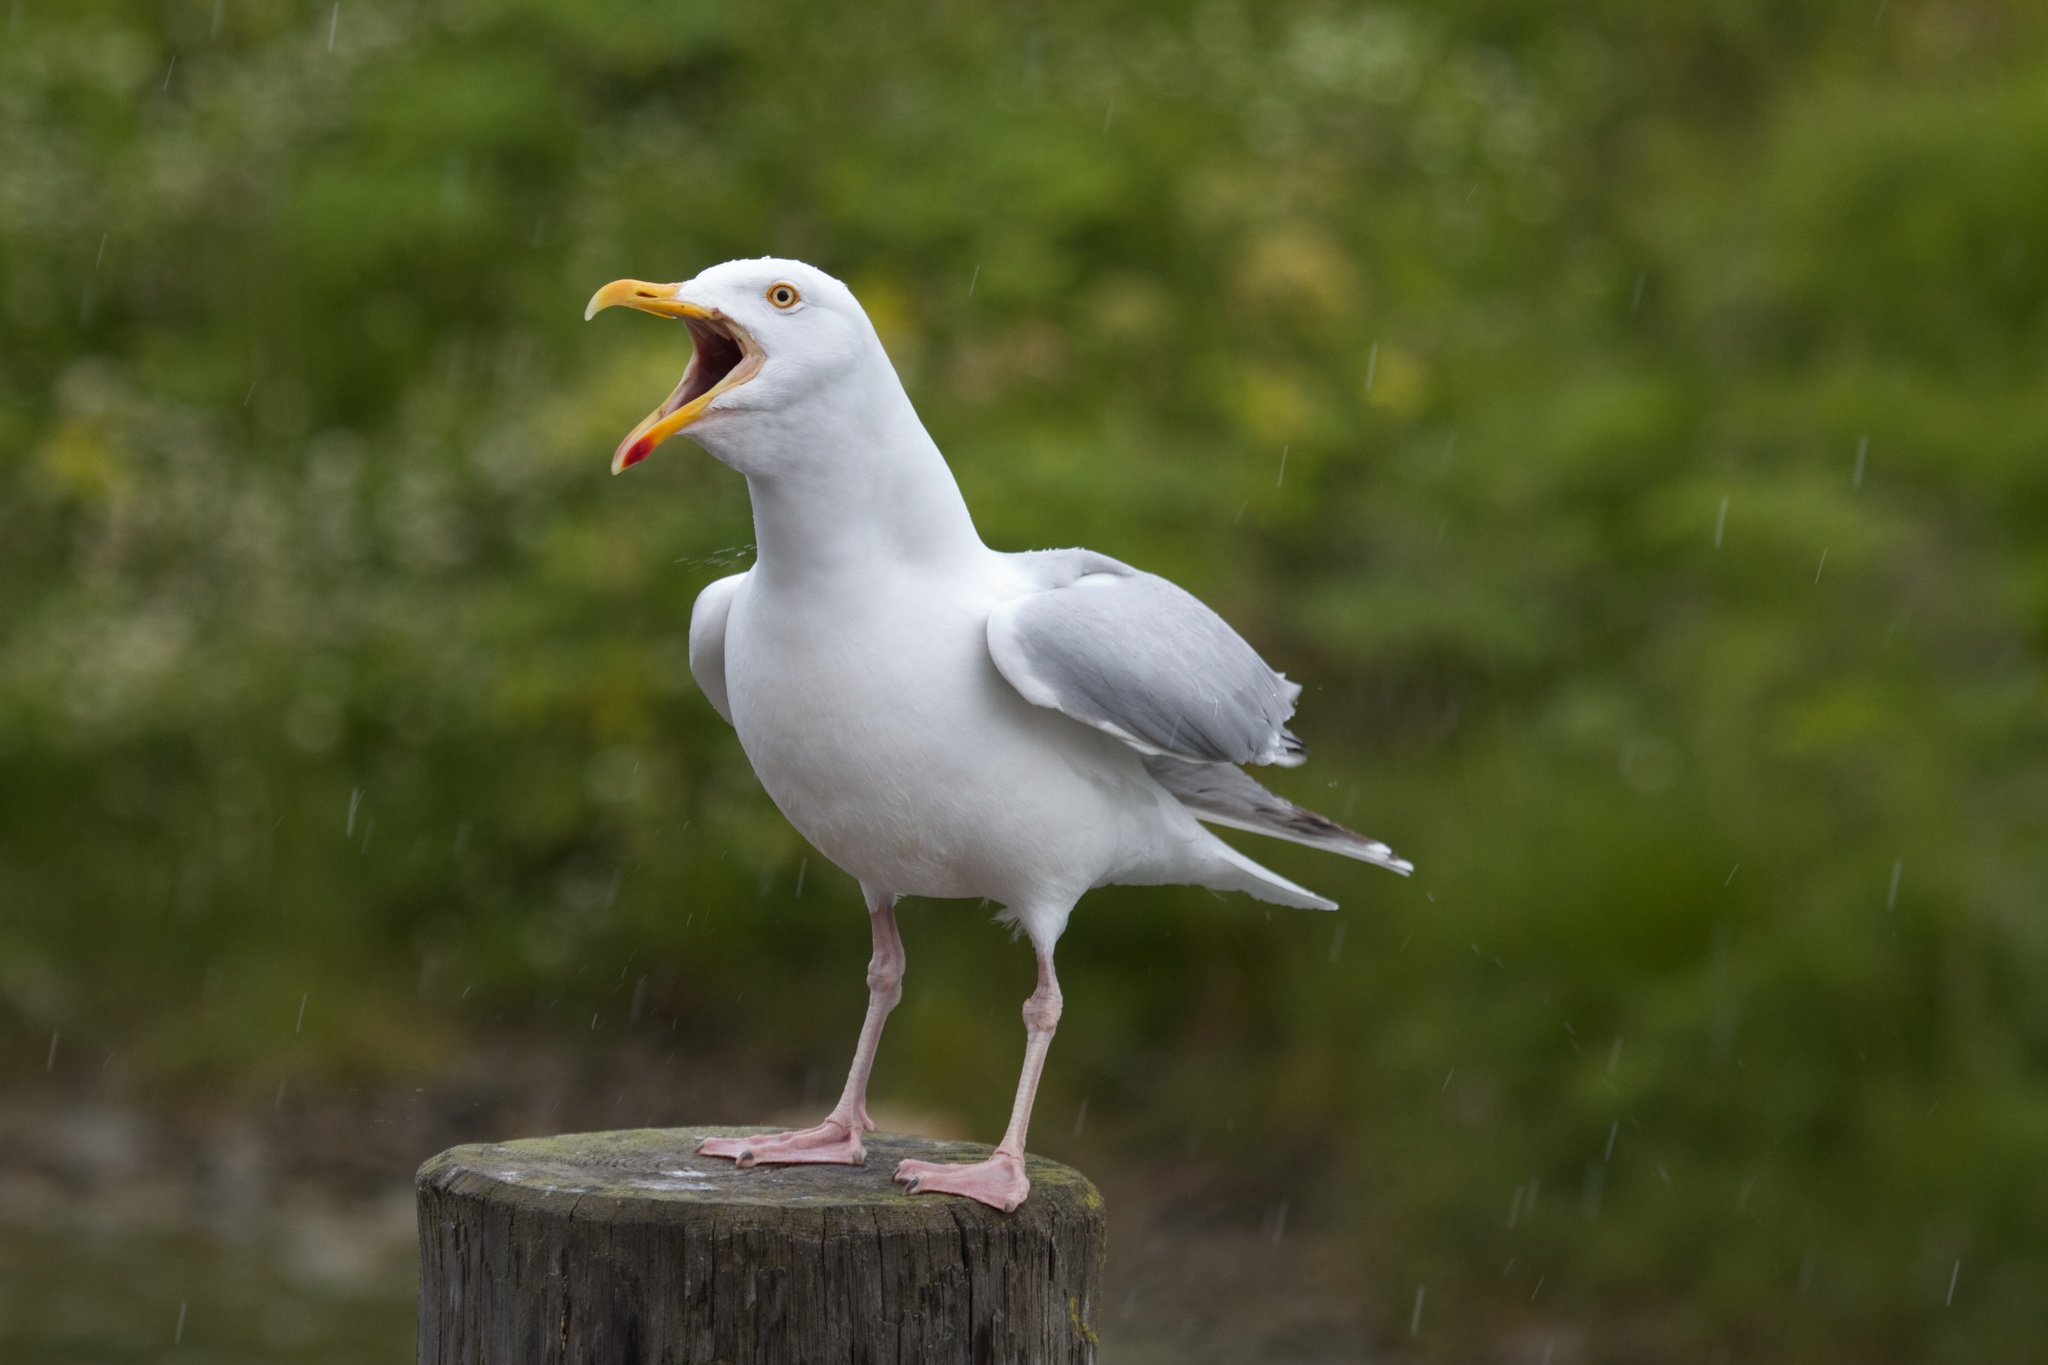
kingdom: Animalia
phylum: Chordata
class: Aves
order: Charadriiformes
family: Laridae
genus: Larus
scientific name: Larus argentatus
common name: Herring gull
